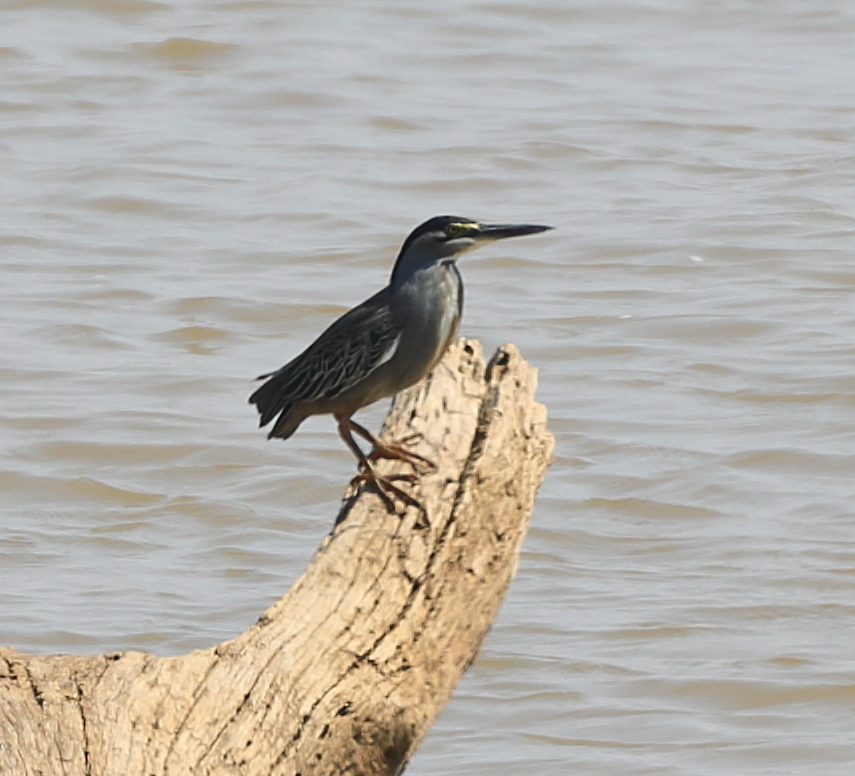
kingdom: Animalia
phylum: Chordata
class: Aves
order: Pelecaniformes
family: Ardeidae
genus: Butorides
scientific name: Butorides striata
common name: Striated heron
